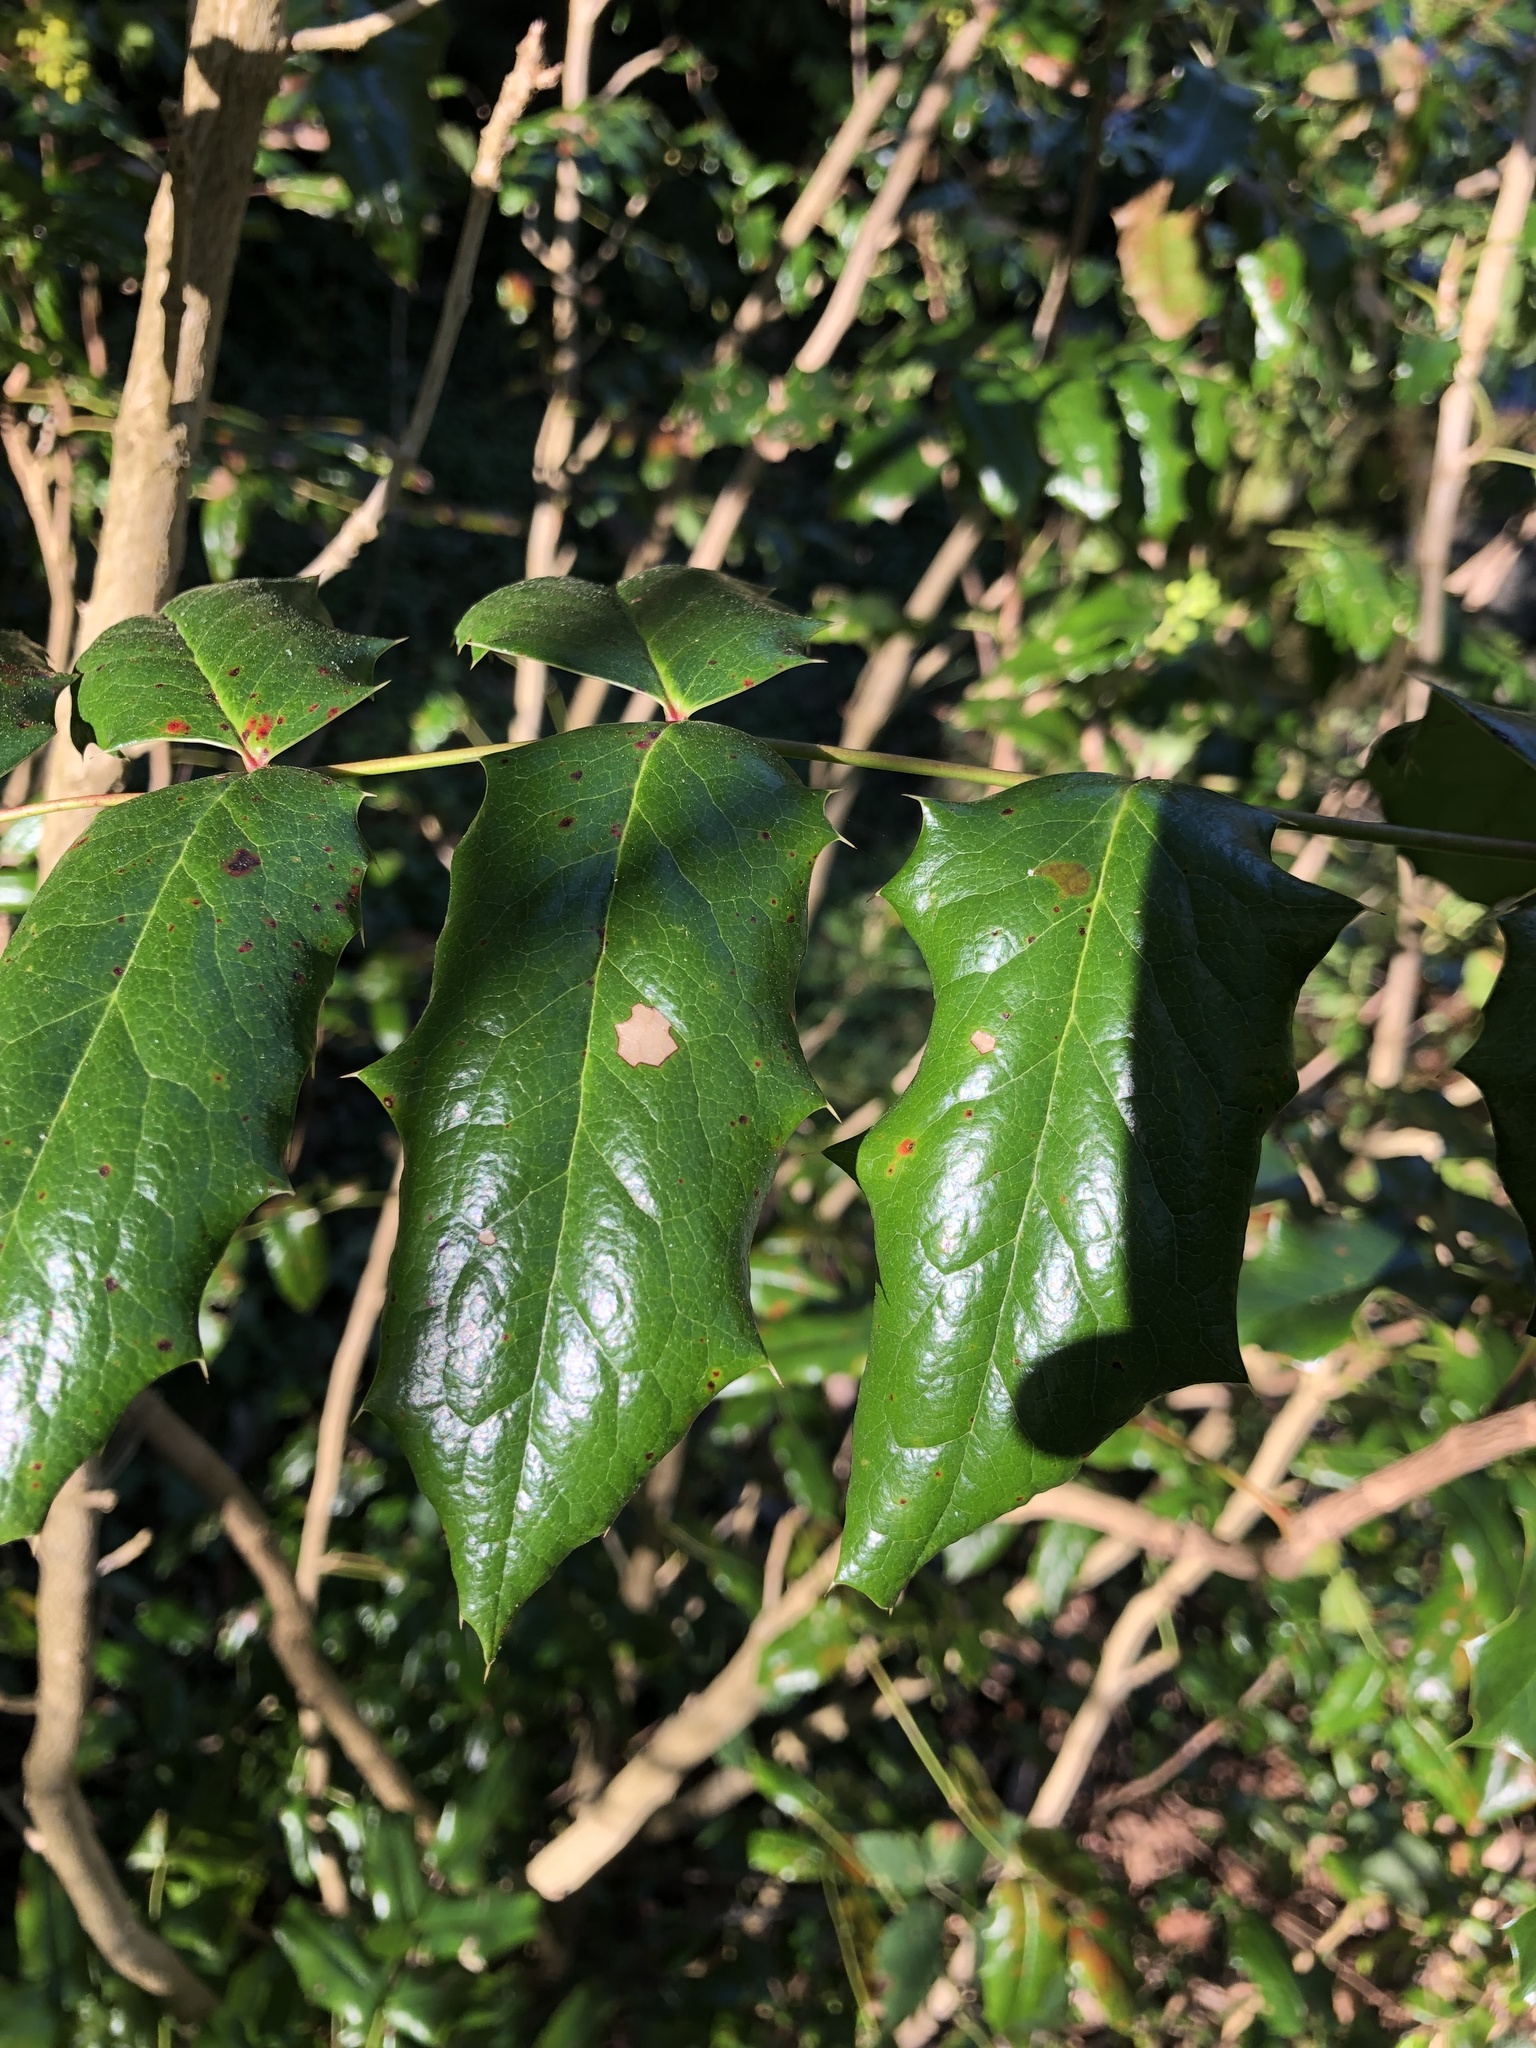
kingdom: Plantae
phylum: Tracheophyta
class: Magnoliopsida
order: Ranunculales
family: Berberidaceae
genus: Mahonia
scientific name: Mahonia aquifolium
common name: Oregon-grape
